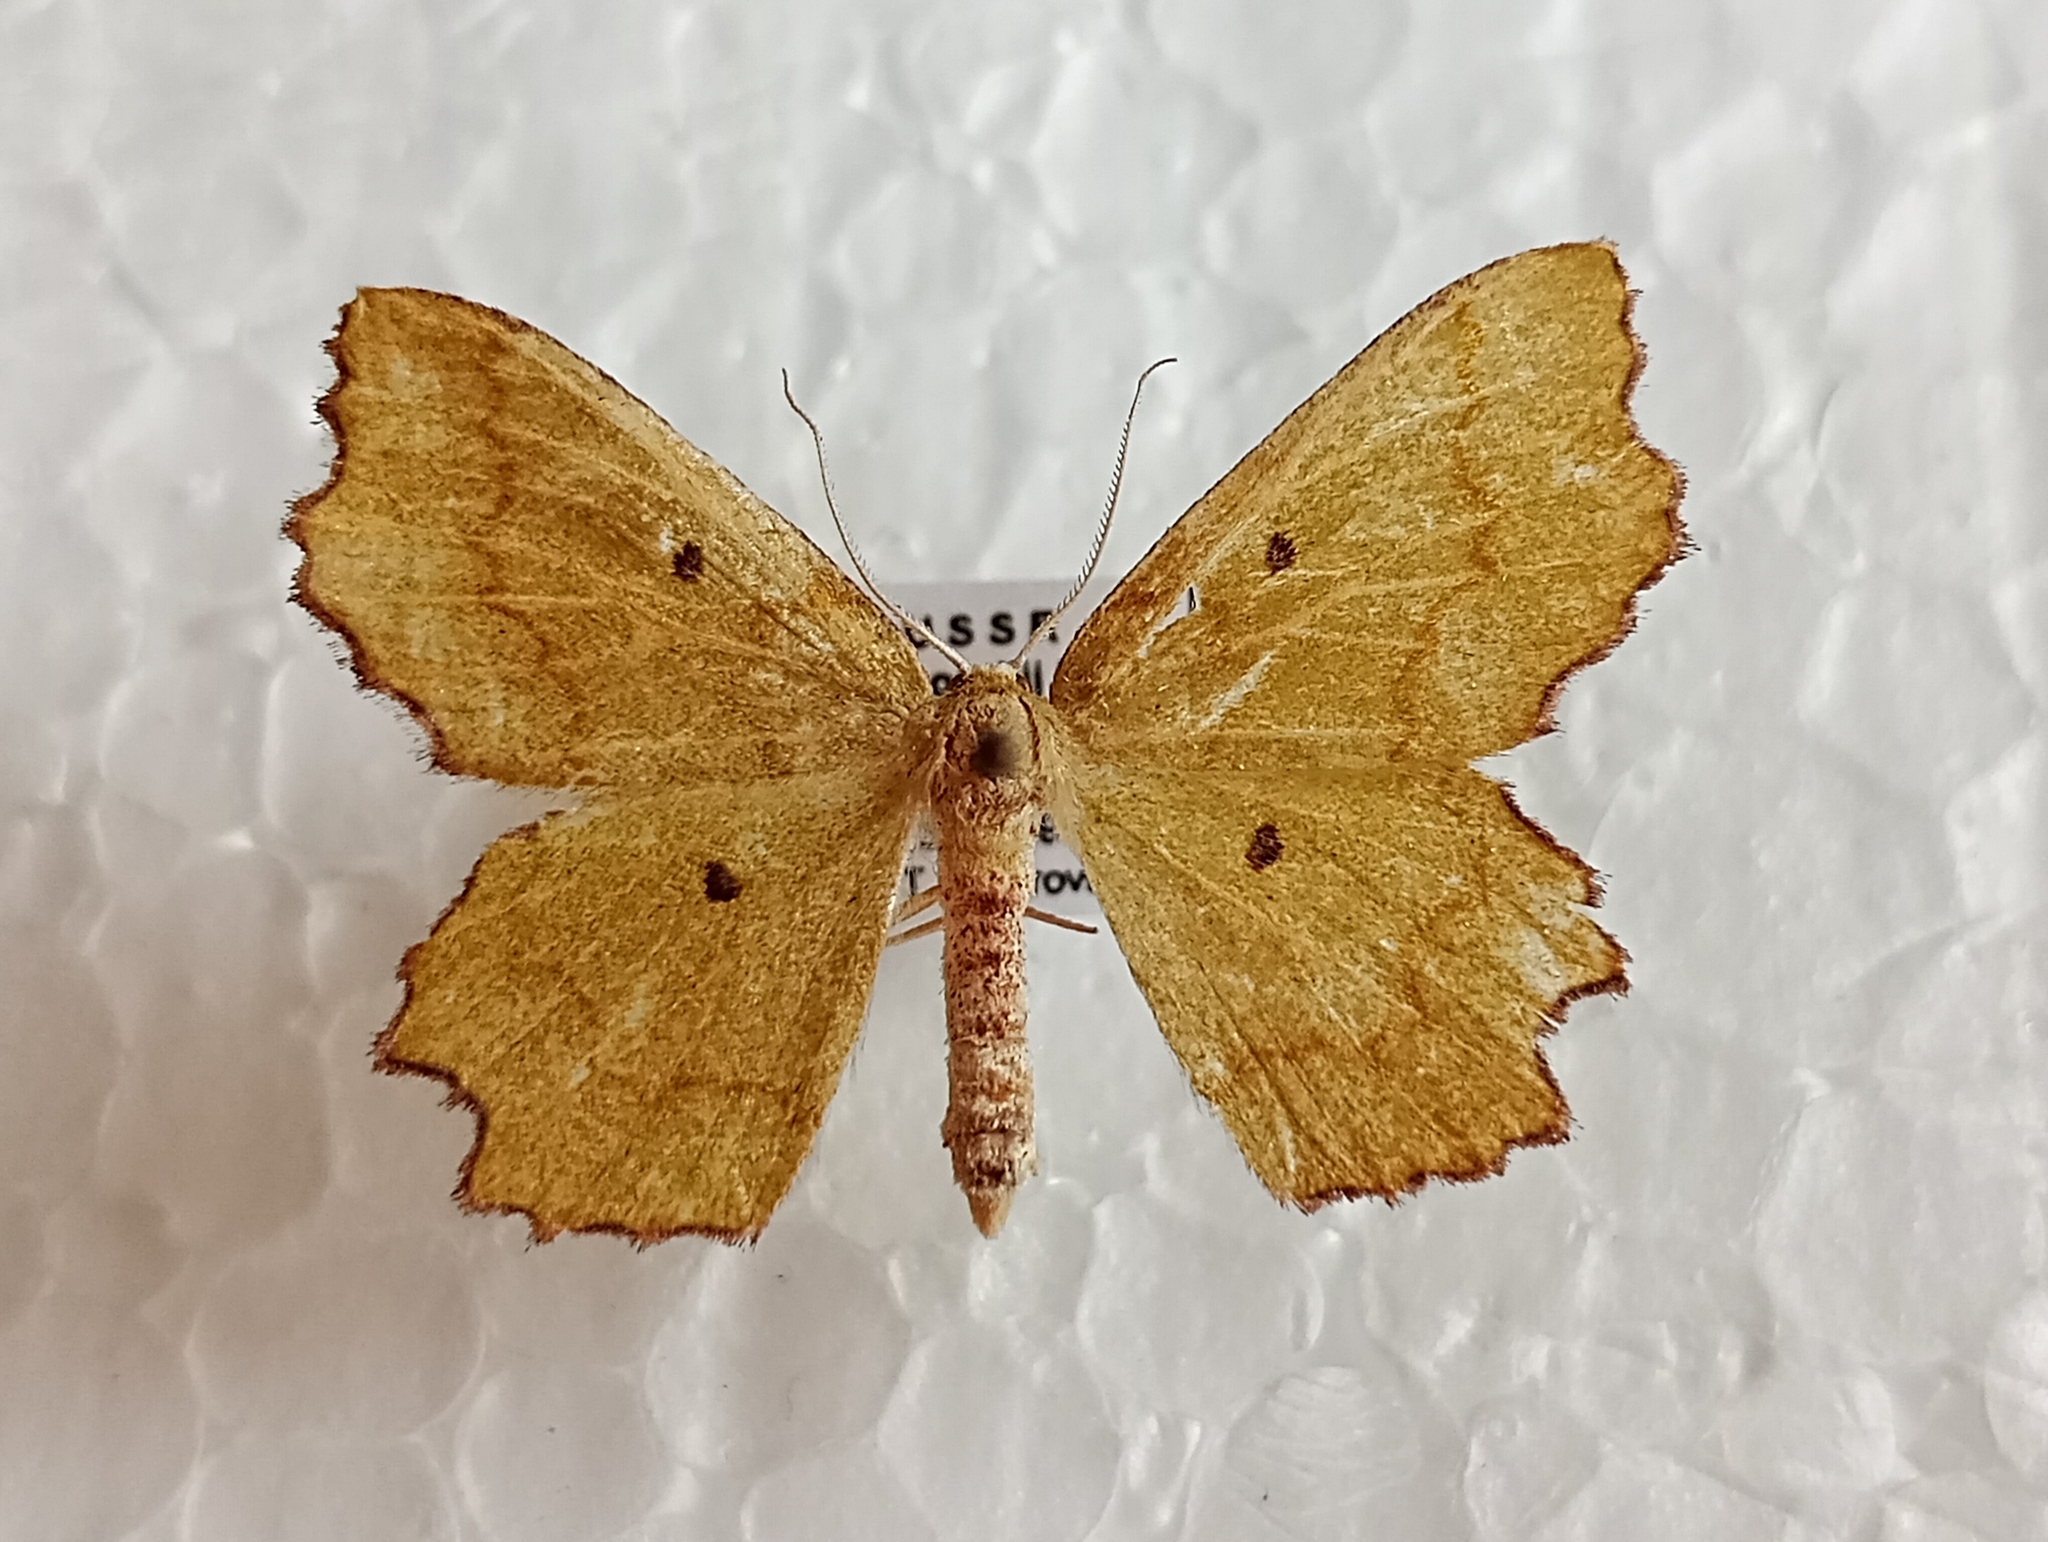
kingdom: Animalia
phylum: Arthropoda
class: Insecta
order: Lepidoptera
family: Geometridae
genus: Thalera
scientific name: Thalera lacerataria
